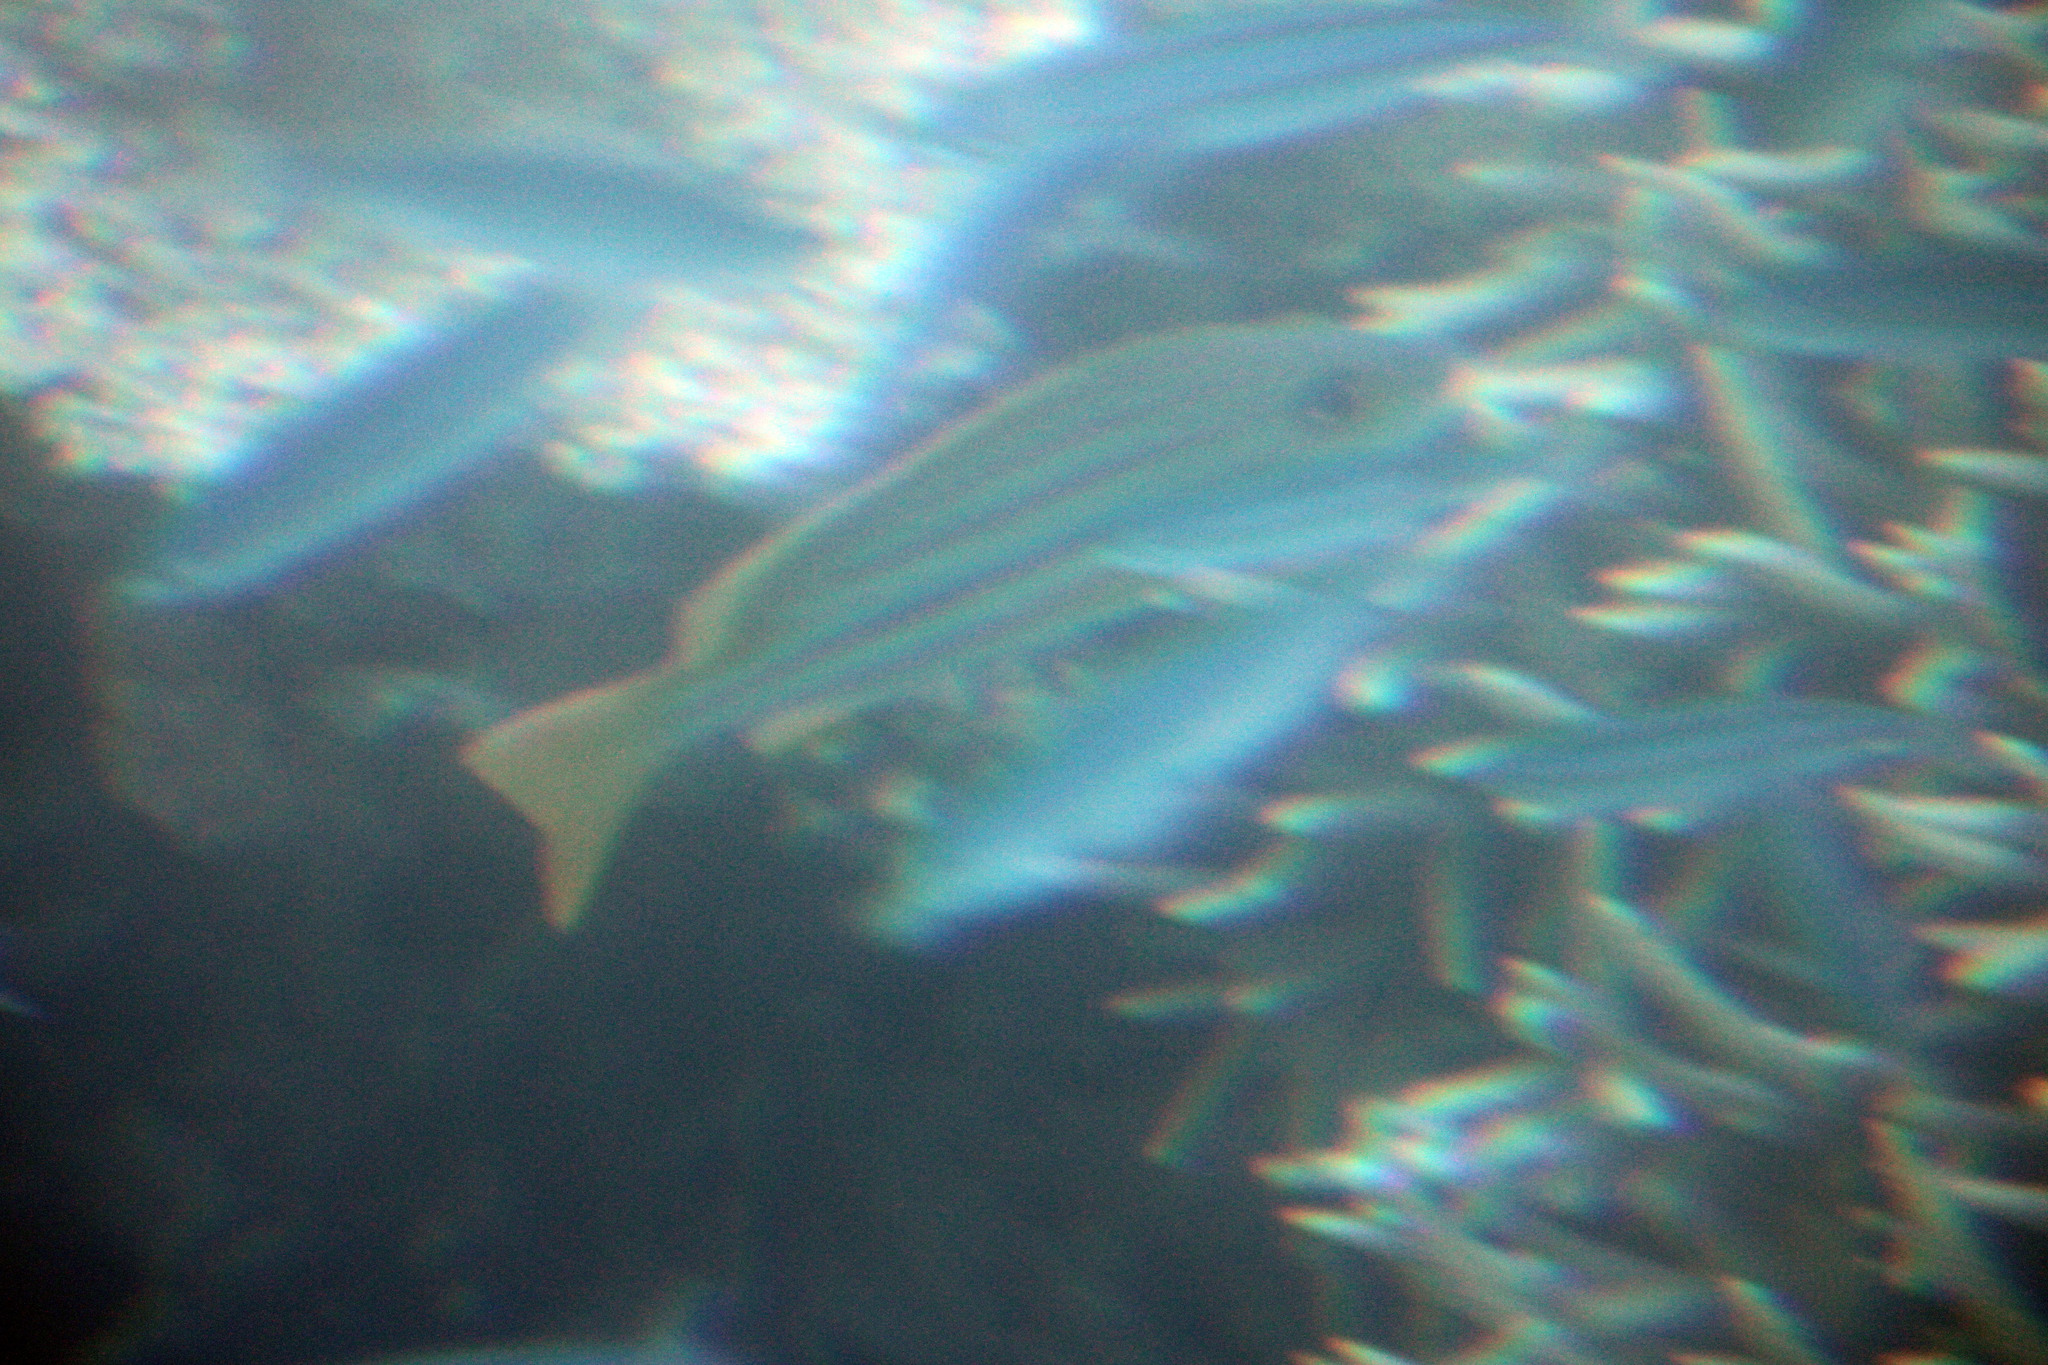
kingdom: Animalia
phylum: Chordata
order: Perciformes
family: Lutjanidae
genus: Lutjanus
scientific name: Lutjanus carponotatus
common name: Spanish flag
